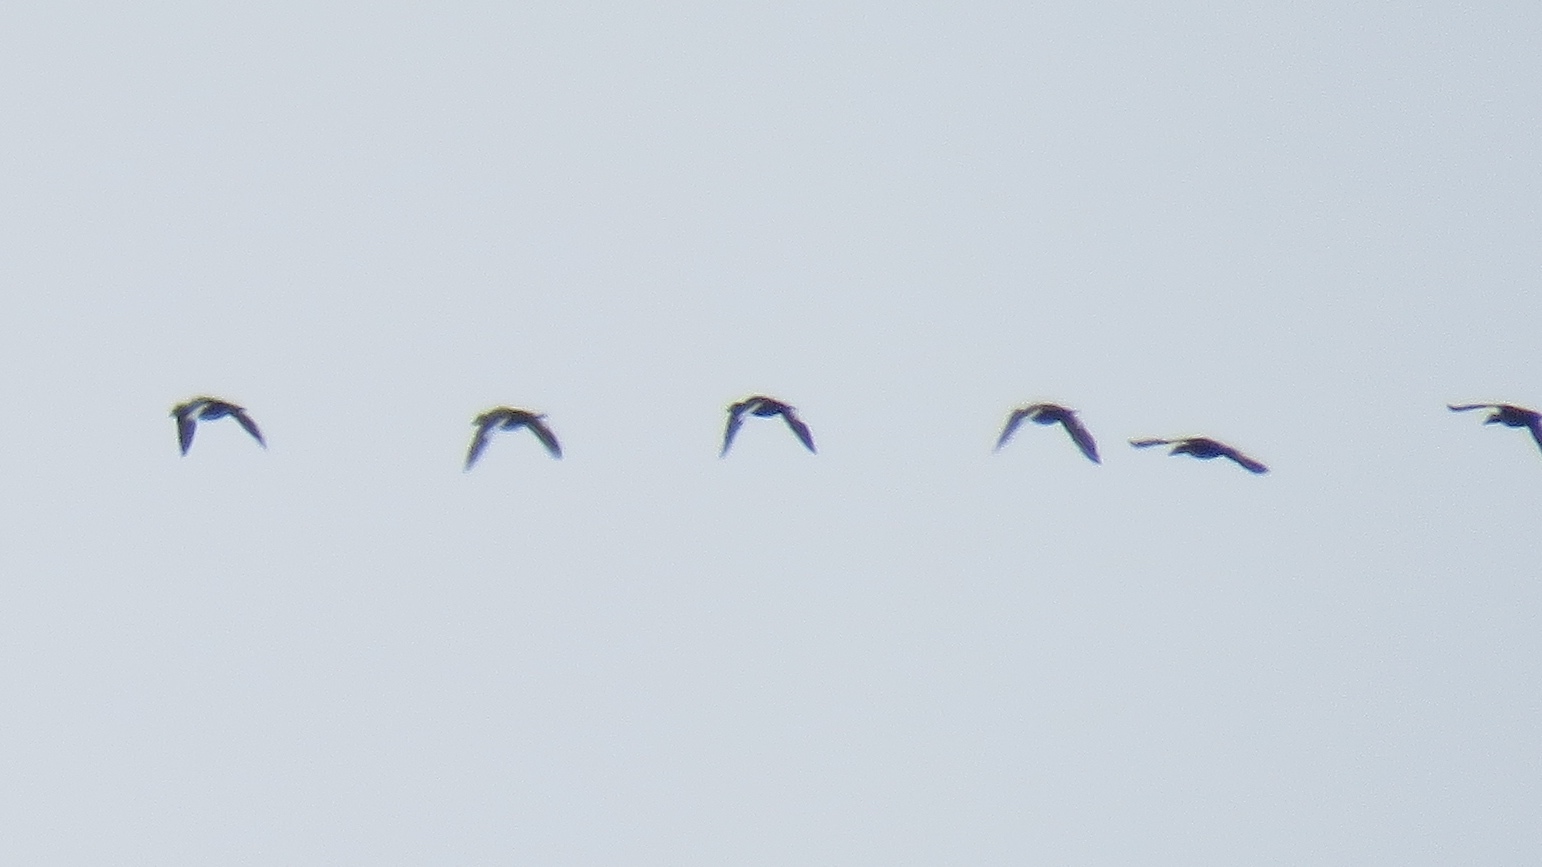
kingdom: Animalia
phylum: Chordata
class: Aves
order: Anseriformes
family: Anatidae
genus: Melanitta
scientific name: Melanitta deglandi
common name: White-winged scoter
